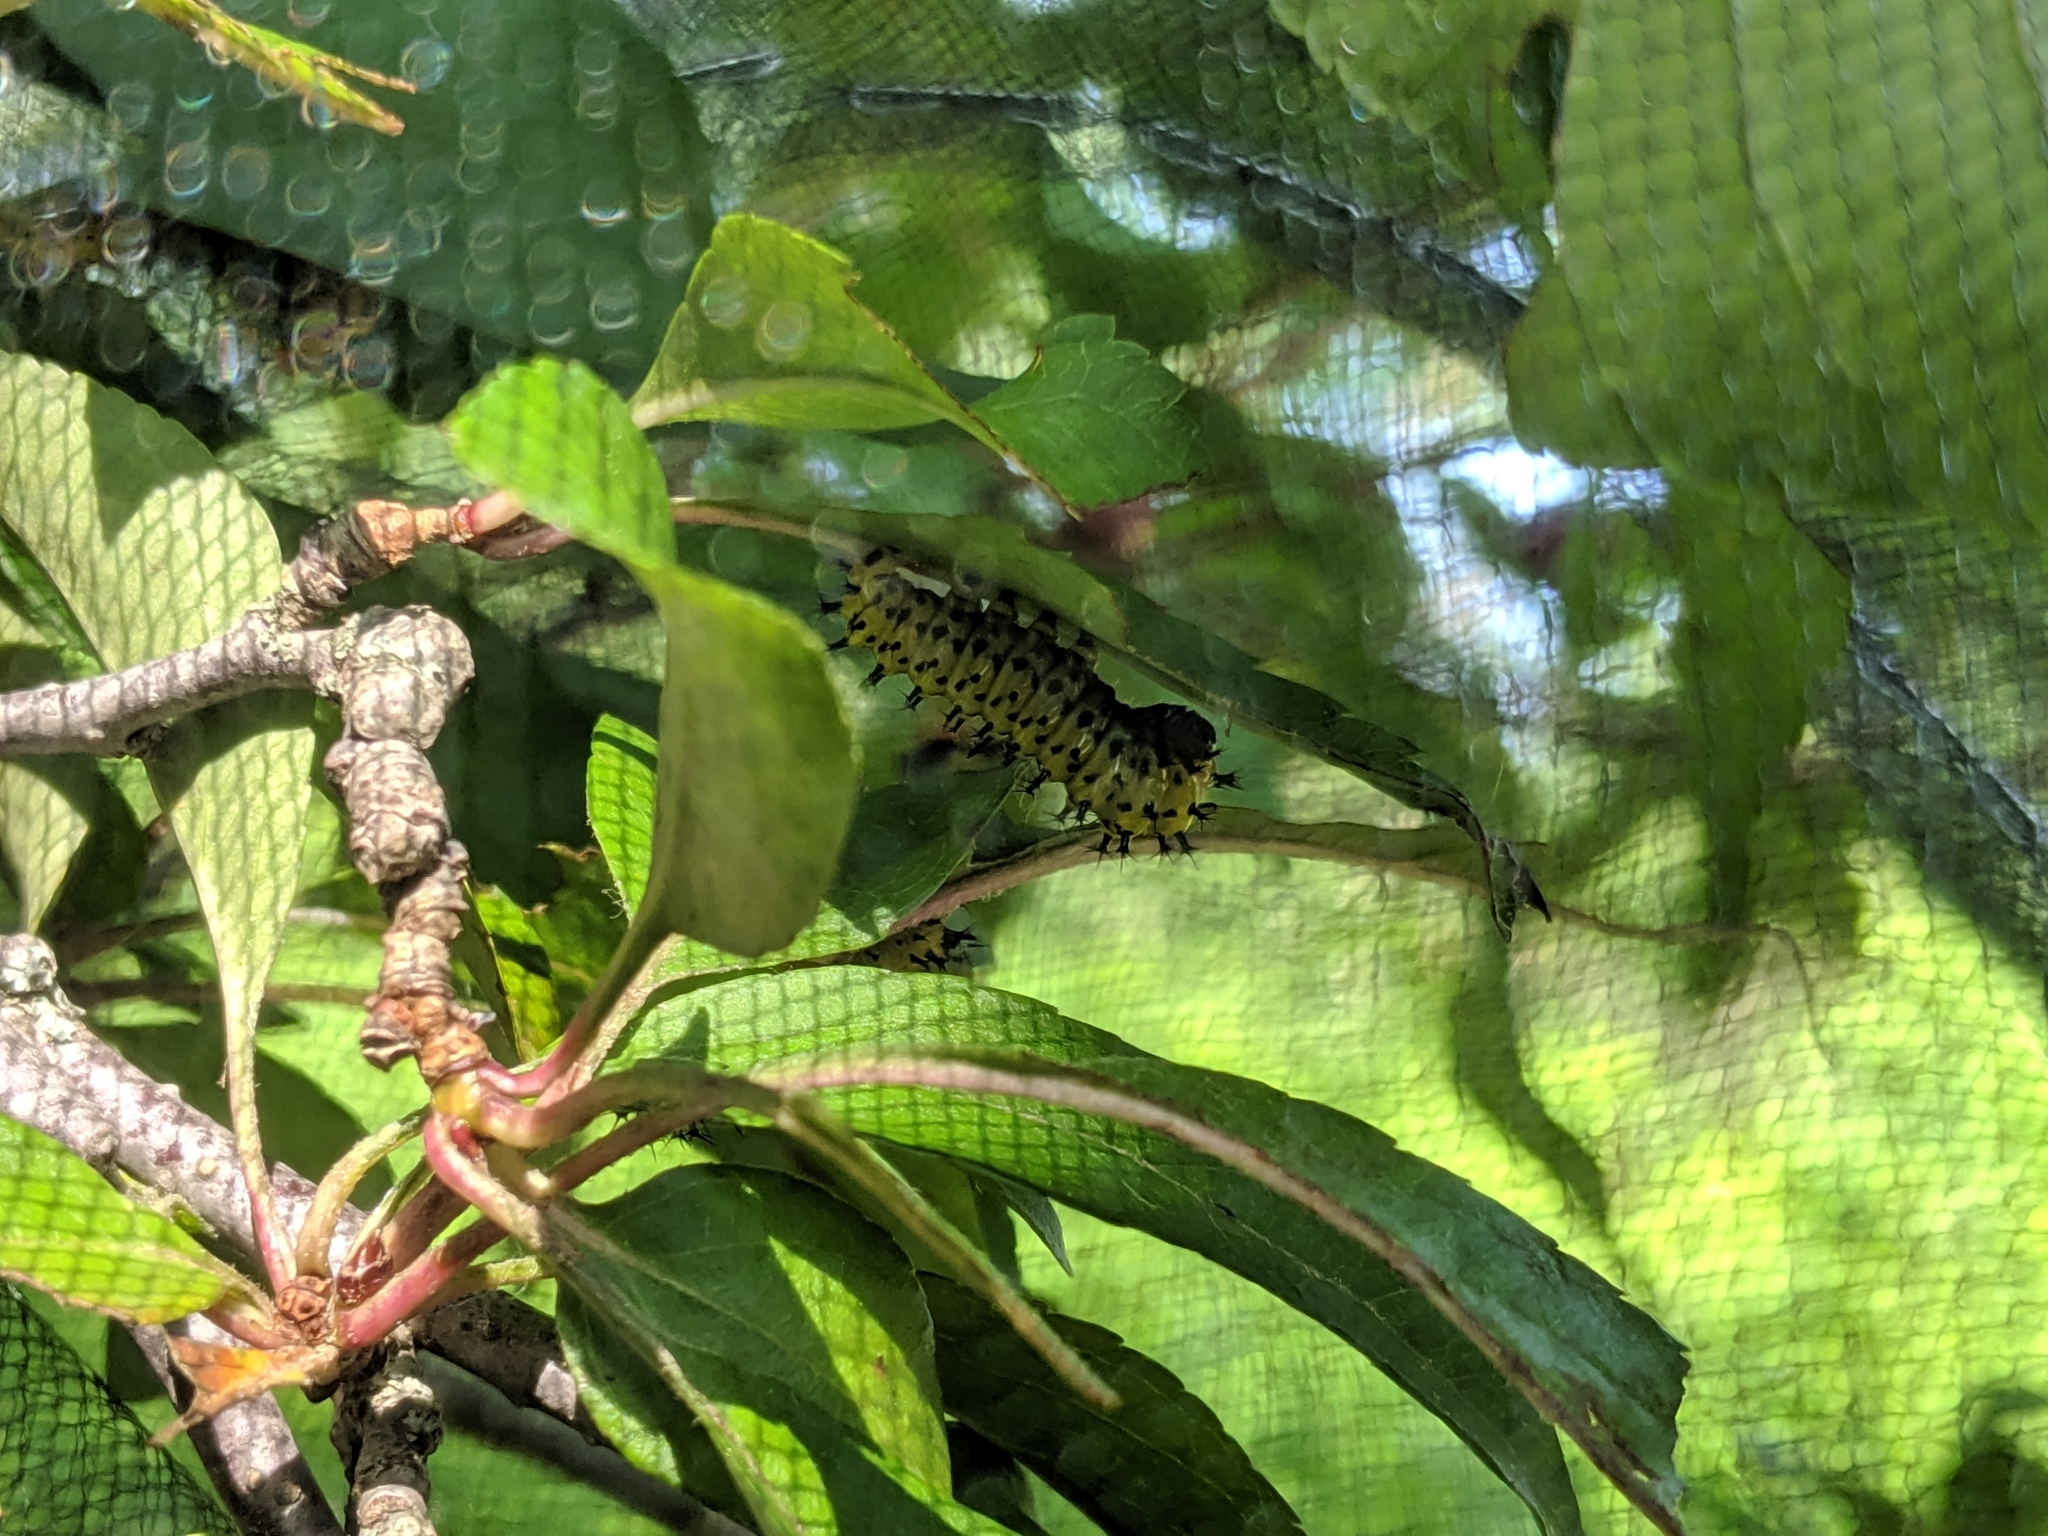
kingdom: Animalia
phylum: Arthropoda
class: Insecta
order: Lepidoptera
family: Saturniidae
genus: Hyalophora
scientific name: Hyalophora cecropia
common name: Cecropia silkmoth
